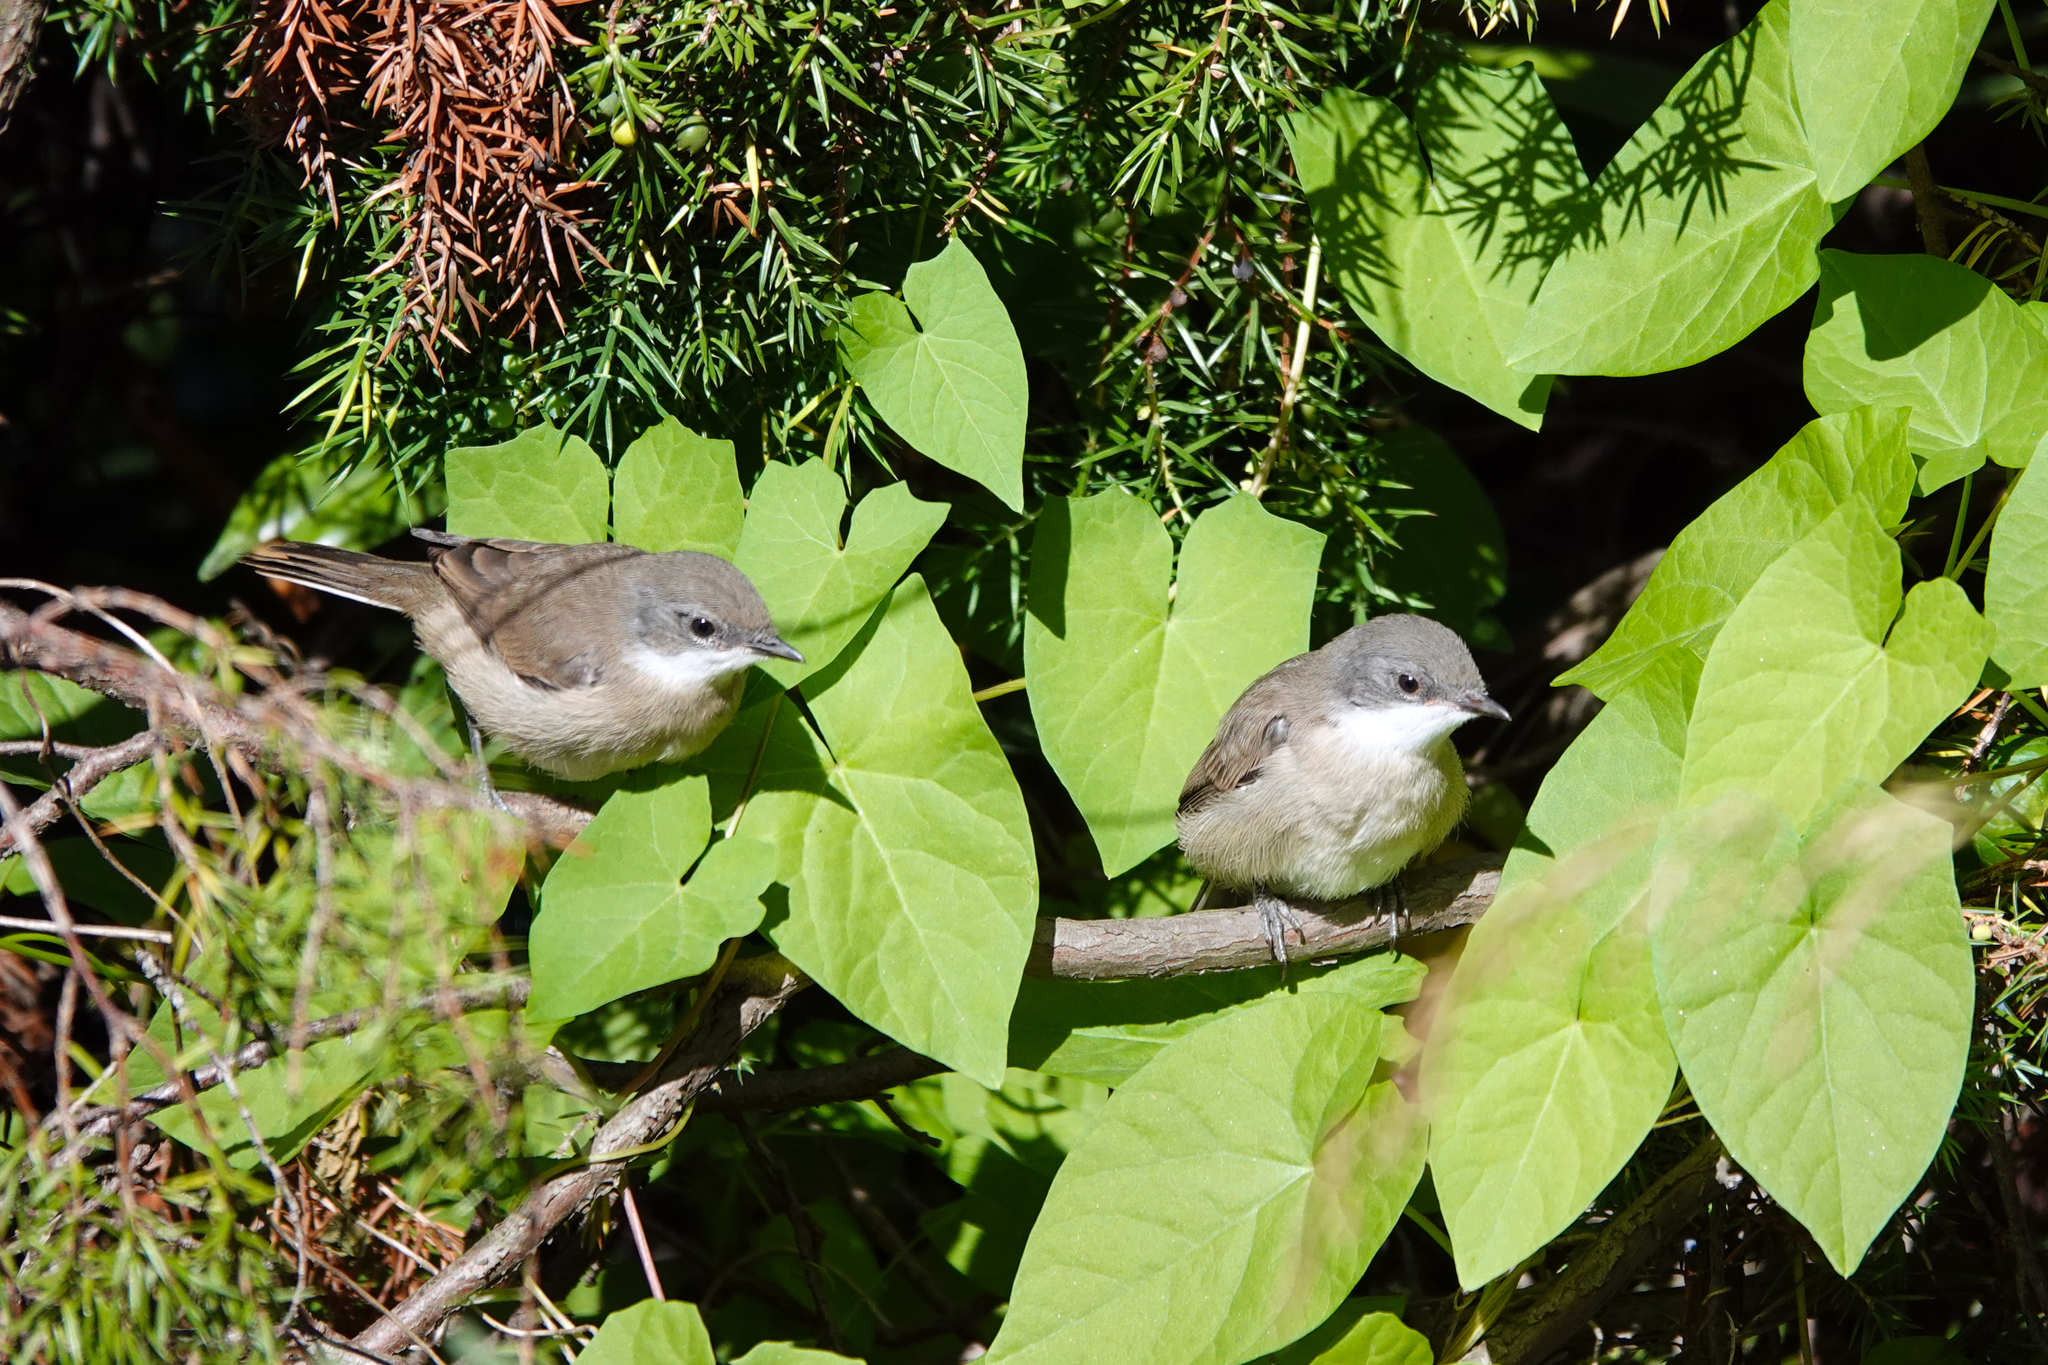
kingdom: Animalia
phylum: Chordata
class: Aves
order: Passeriformes
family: Sylviidae
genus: Sylvia
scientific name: Sylvia curruca
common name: Lesser whitethroat
